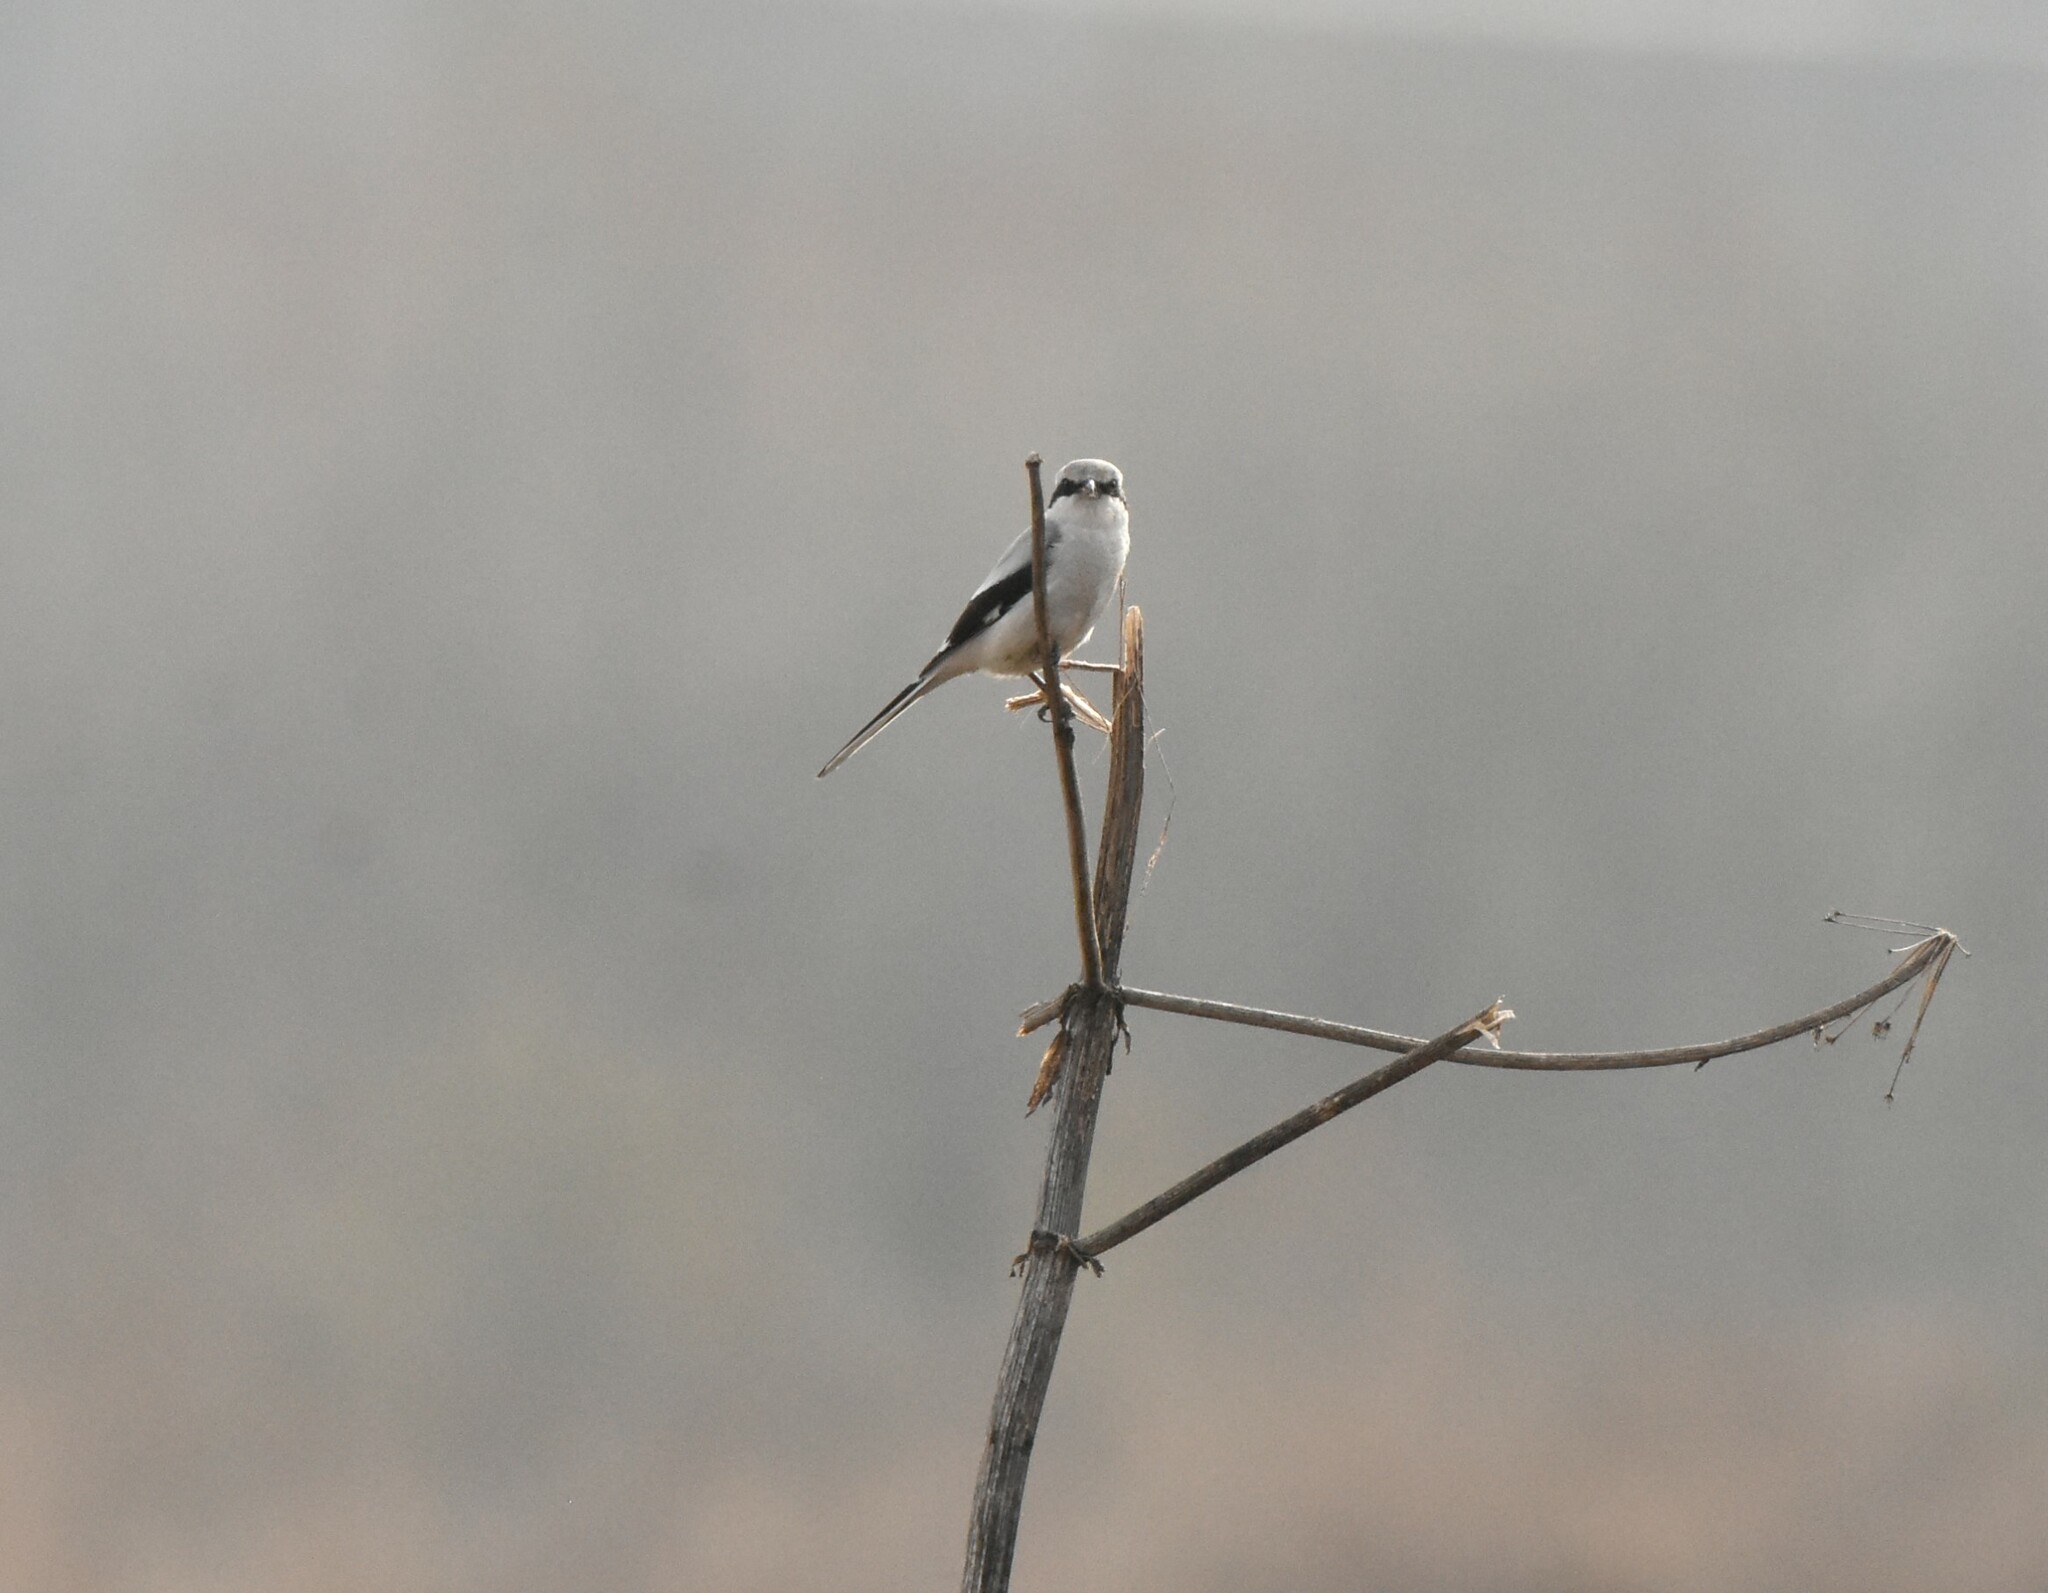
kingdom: Animalia
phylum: Chordata
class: Aves
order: Passeriformes
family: Laniidae
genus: Lanius
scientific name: Lanius excubitor
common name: Great grey shrike
